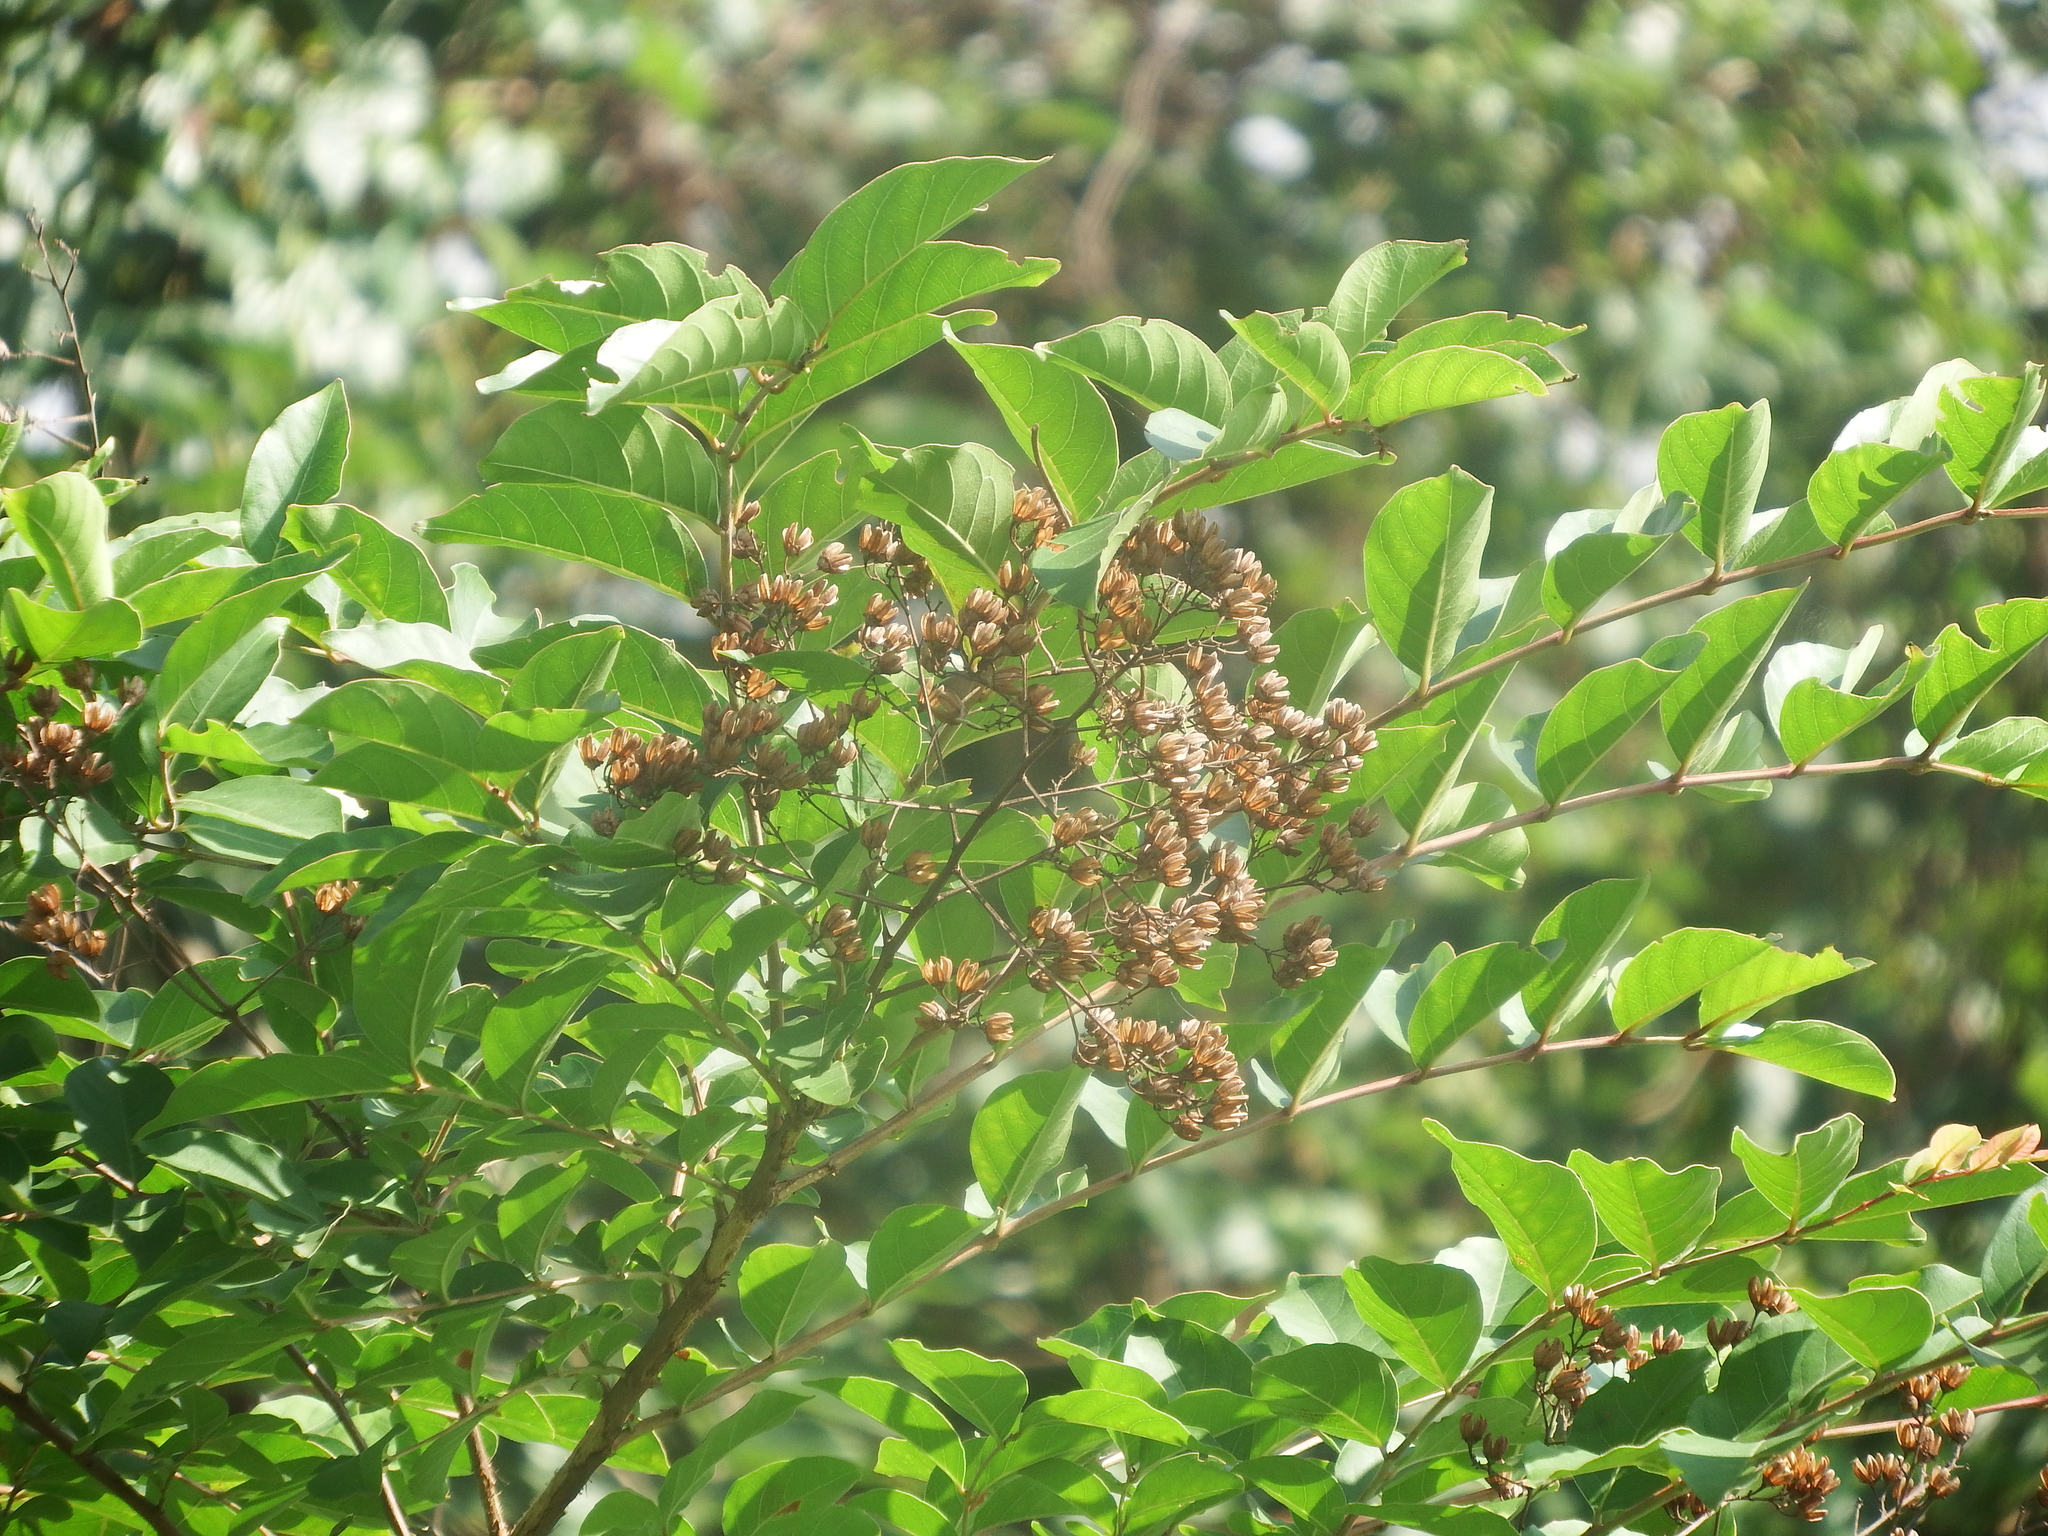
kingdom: Plantae
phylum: Tracheophyta
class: Magnoliopsida
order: Myrtales
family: Lythraceae
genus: Lagerstroemia
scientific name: Lagerstroemia subcostata
